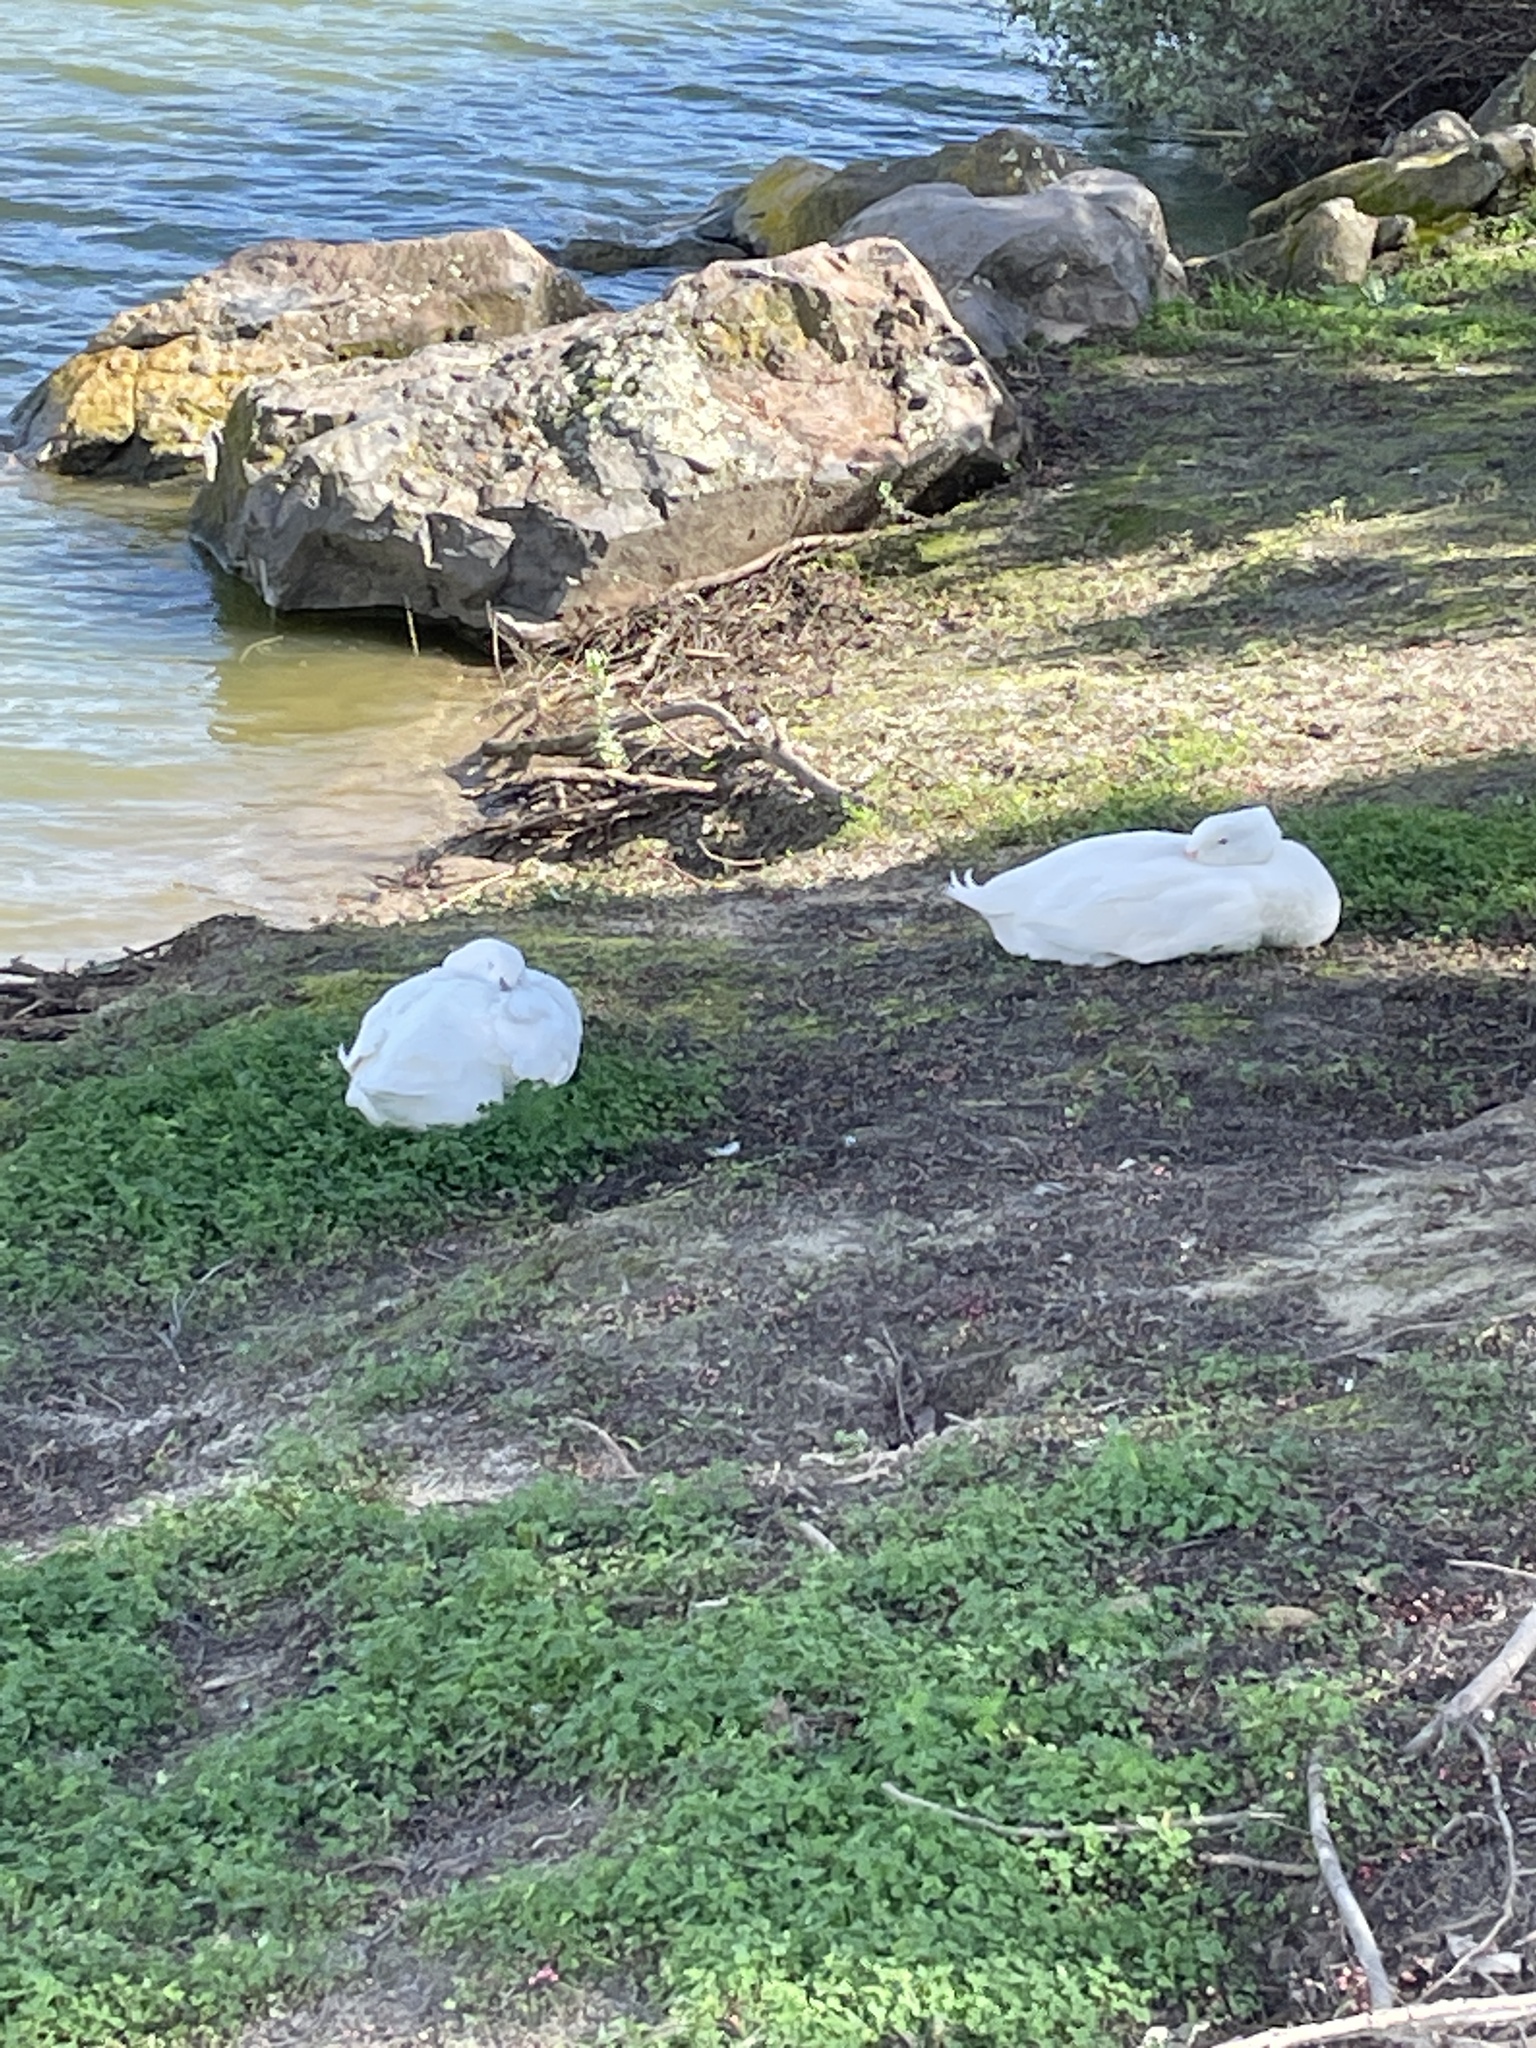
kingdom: Animalia
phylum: Chordata
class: Aves
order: Anseriformes
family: Anatidae
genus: Anas
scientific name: Anas platyrhynchos
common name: Mallard
